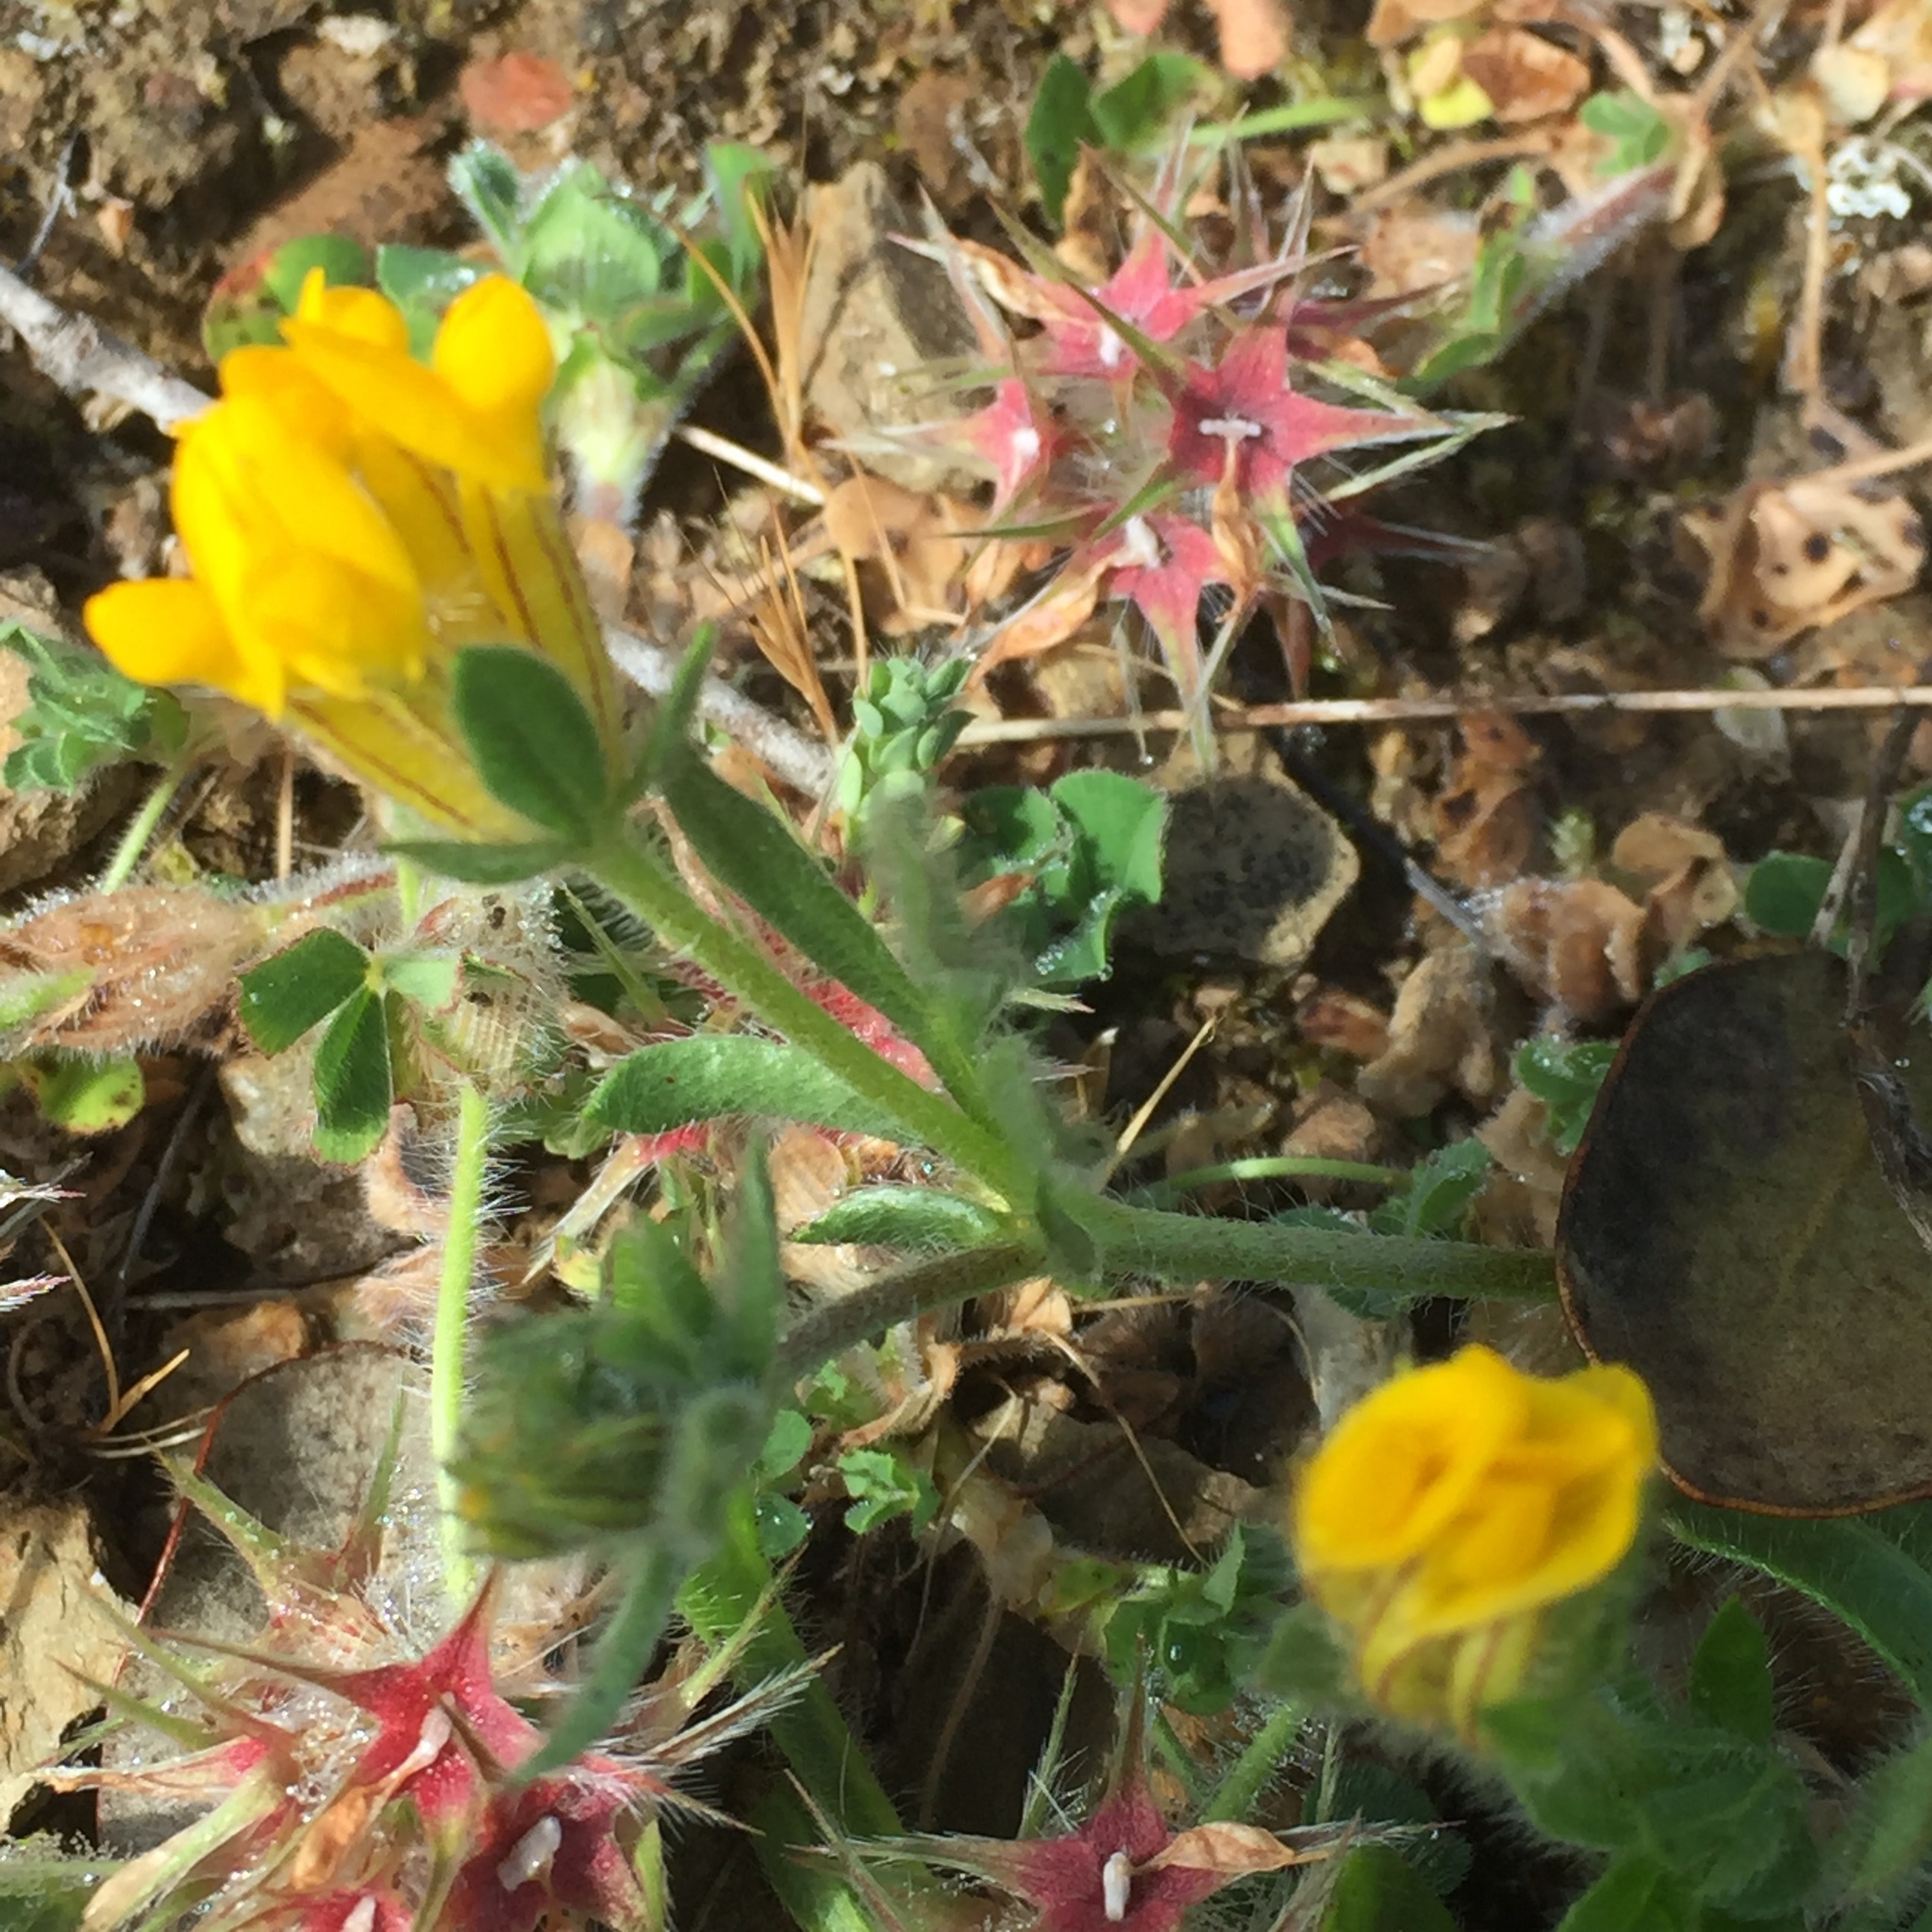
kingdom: Plantae
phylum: Tracheophyta
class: Magnoliopsida
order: Fabales
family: Fabaceae
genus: Trifolium
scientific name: Trifolium stellatum
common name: Starry clover
